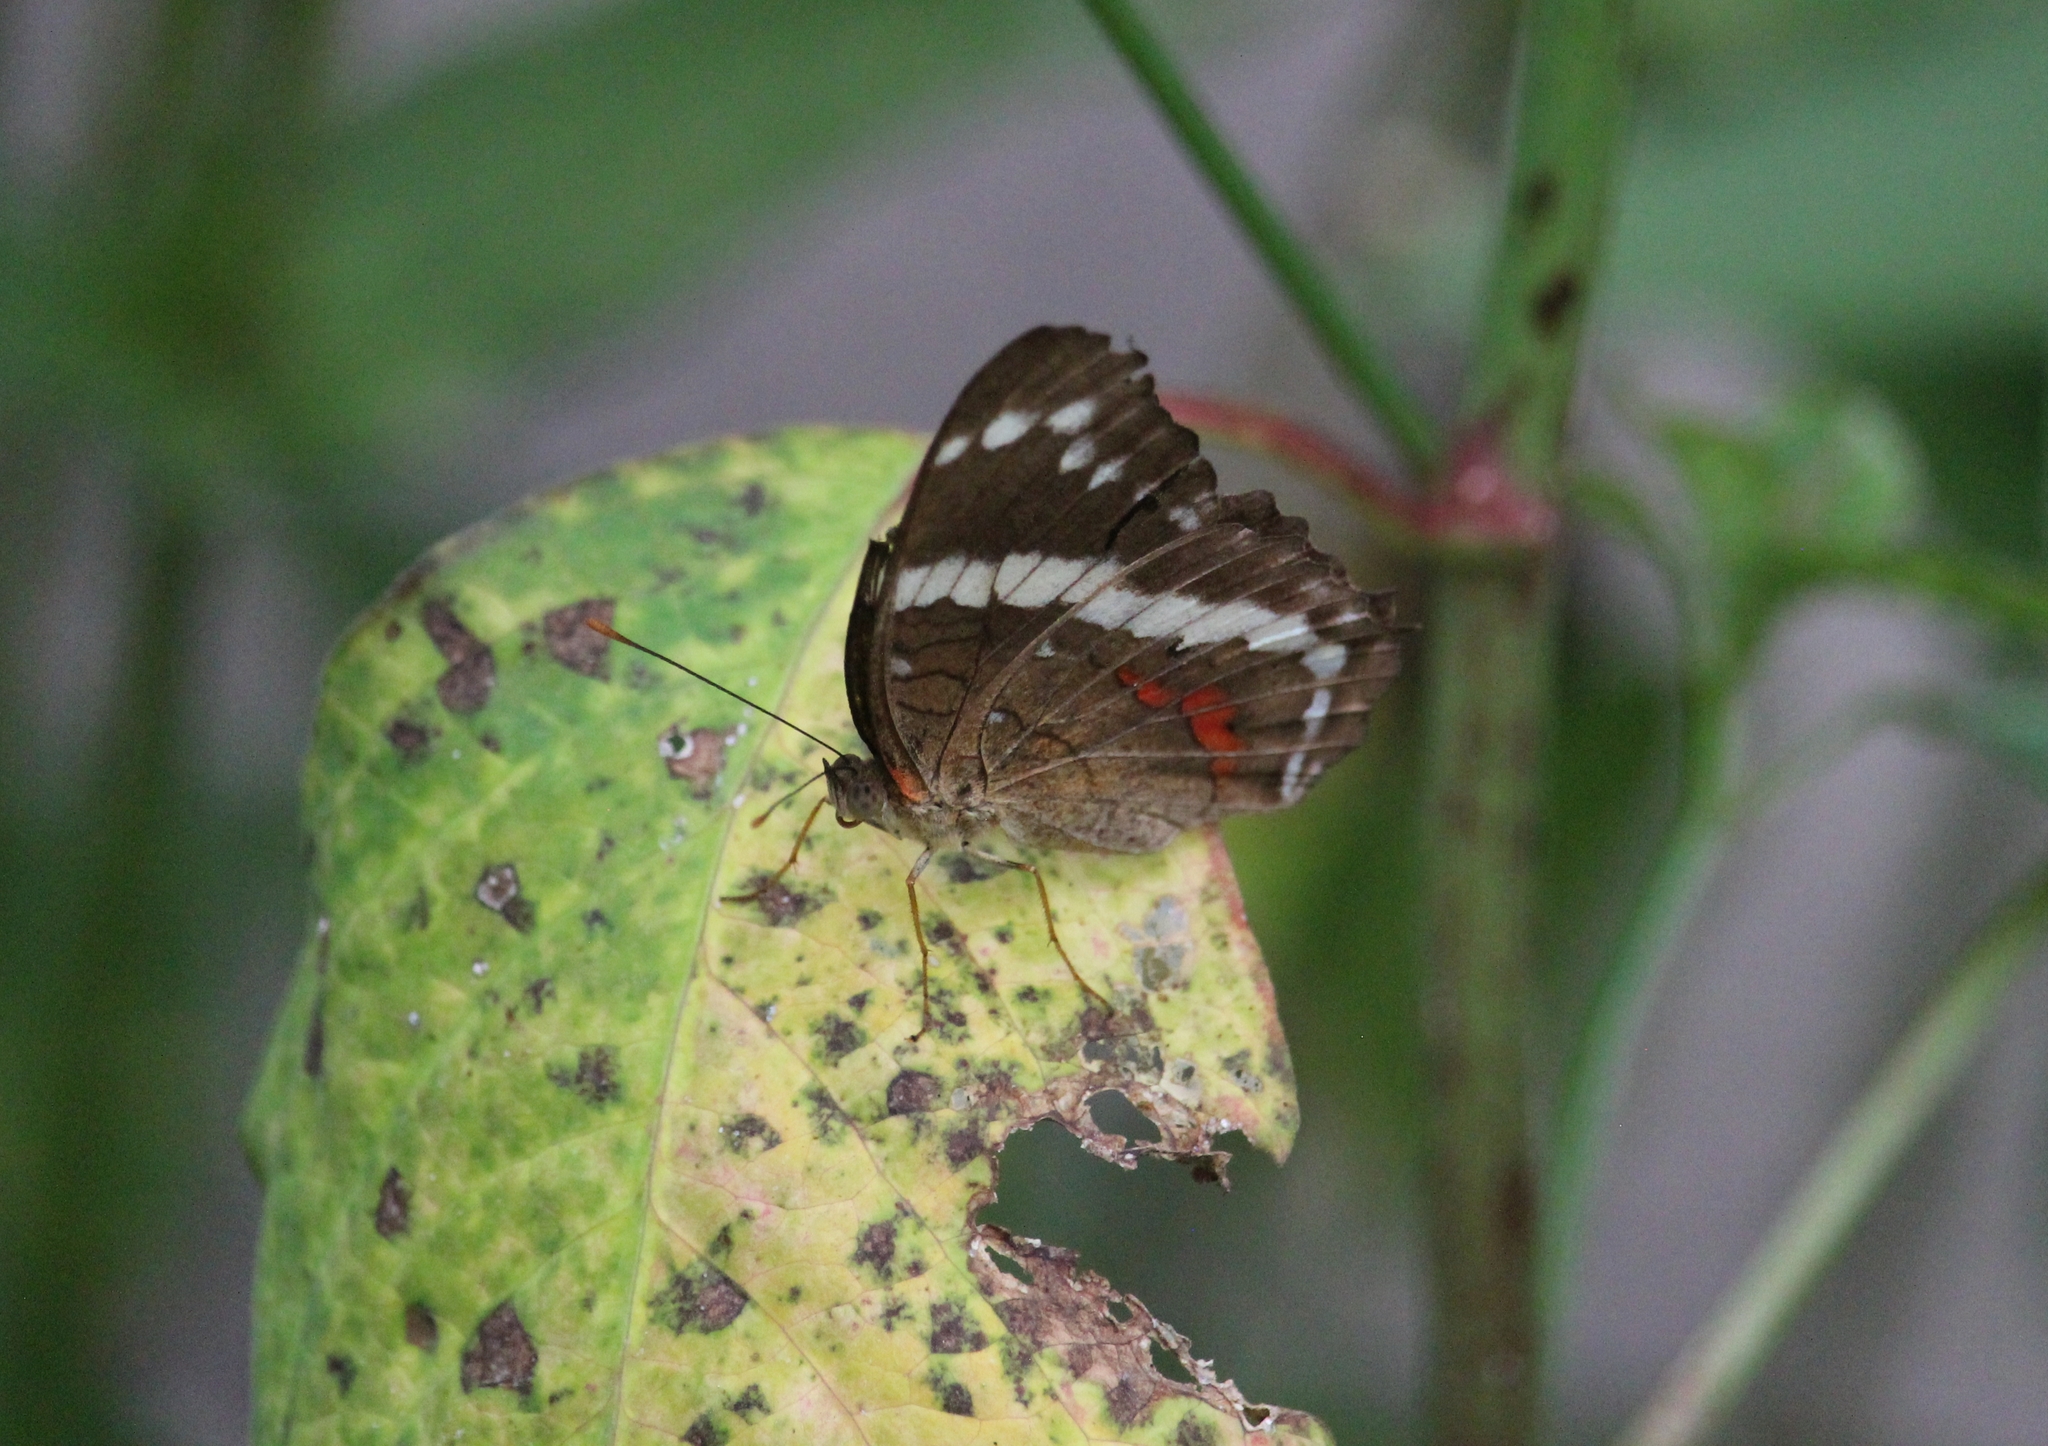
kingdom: Animalia
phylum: Arthropoda
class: Insecta
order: Lepidoptera
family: Nymphalidae
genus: Anartia
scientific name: Anartia fatima
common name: Banded peacock
